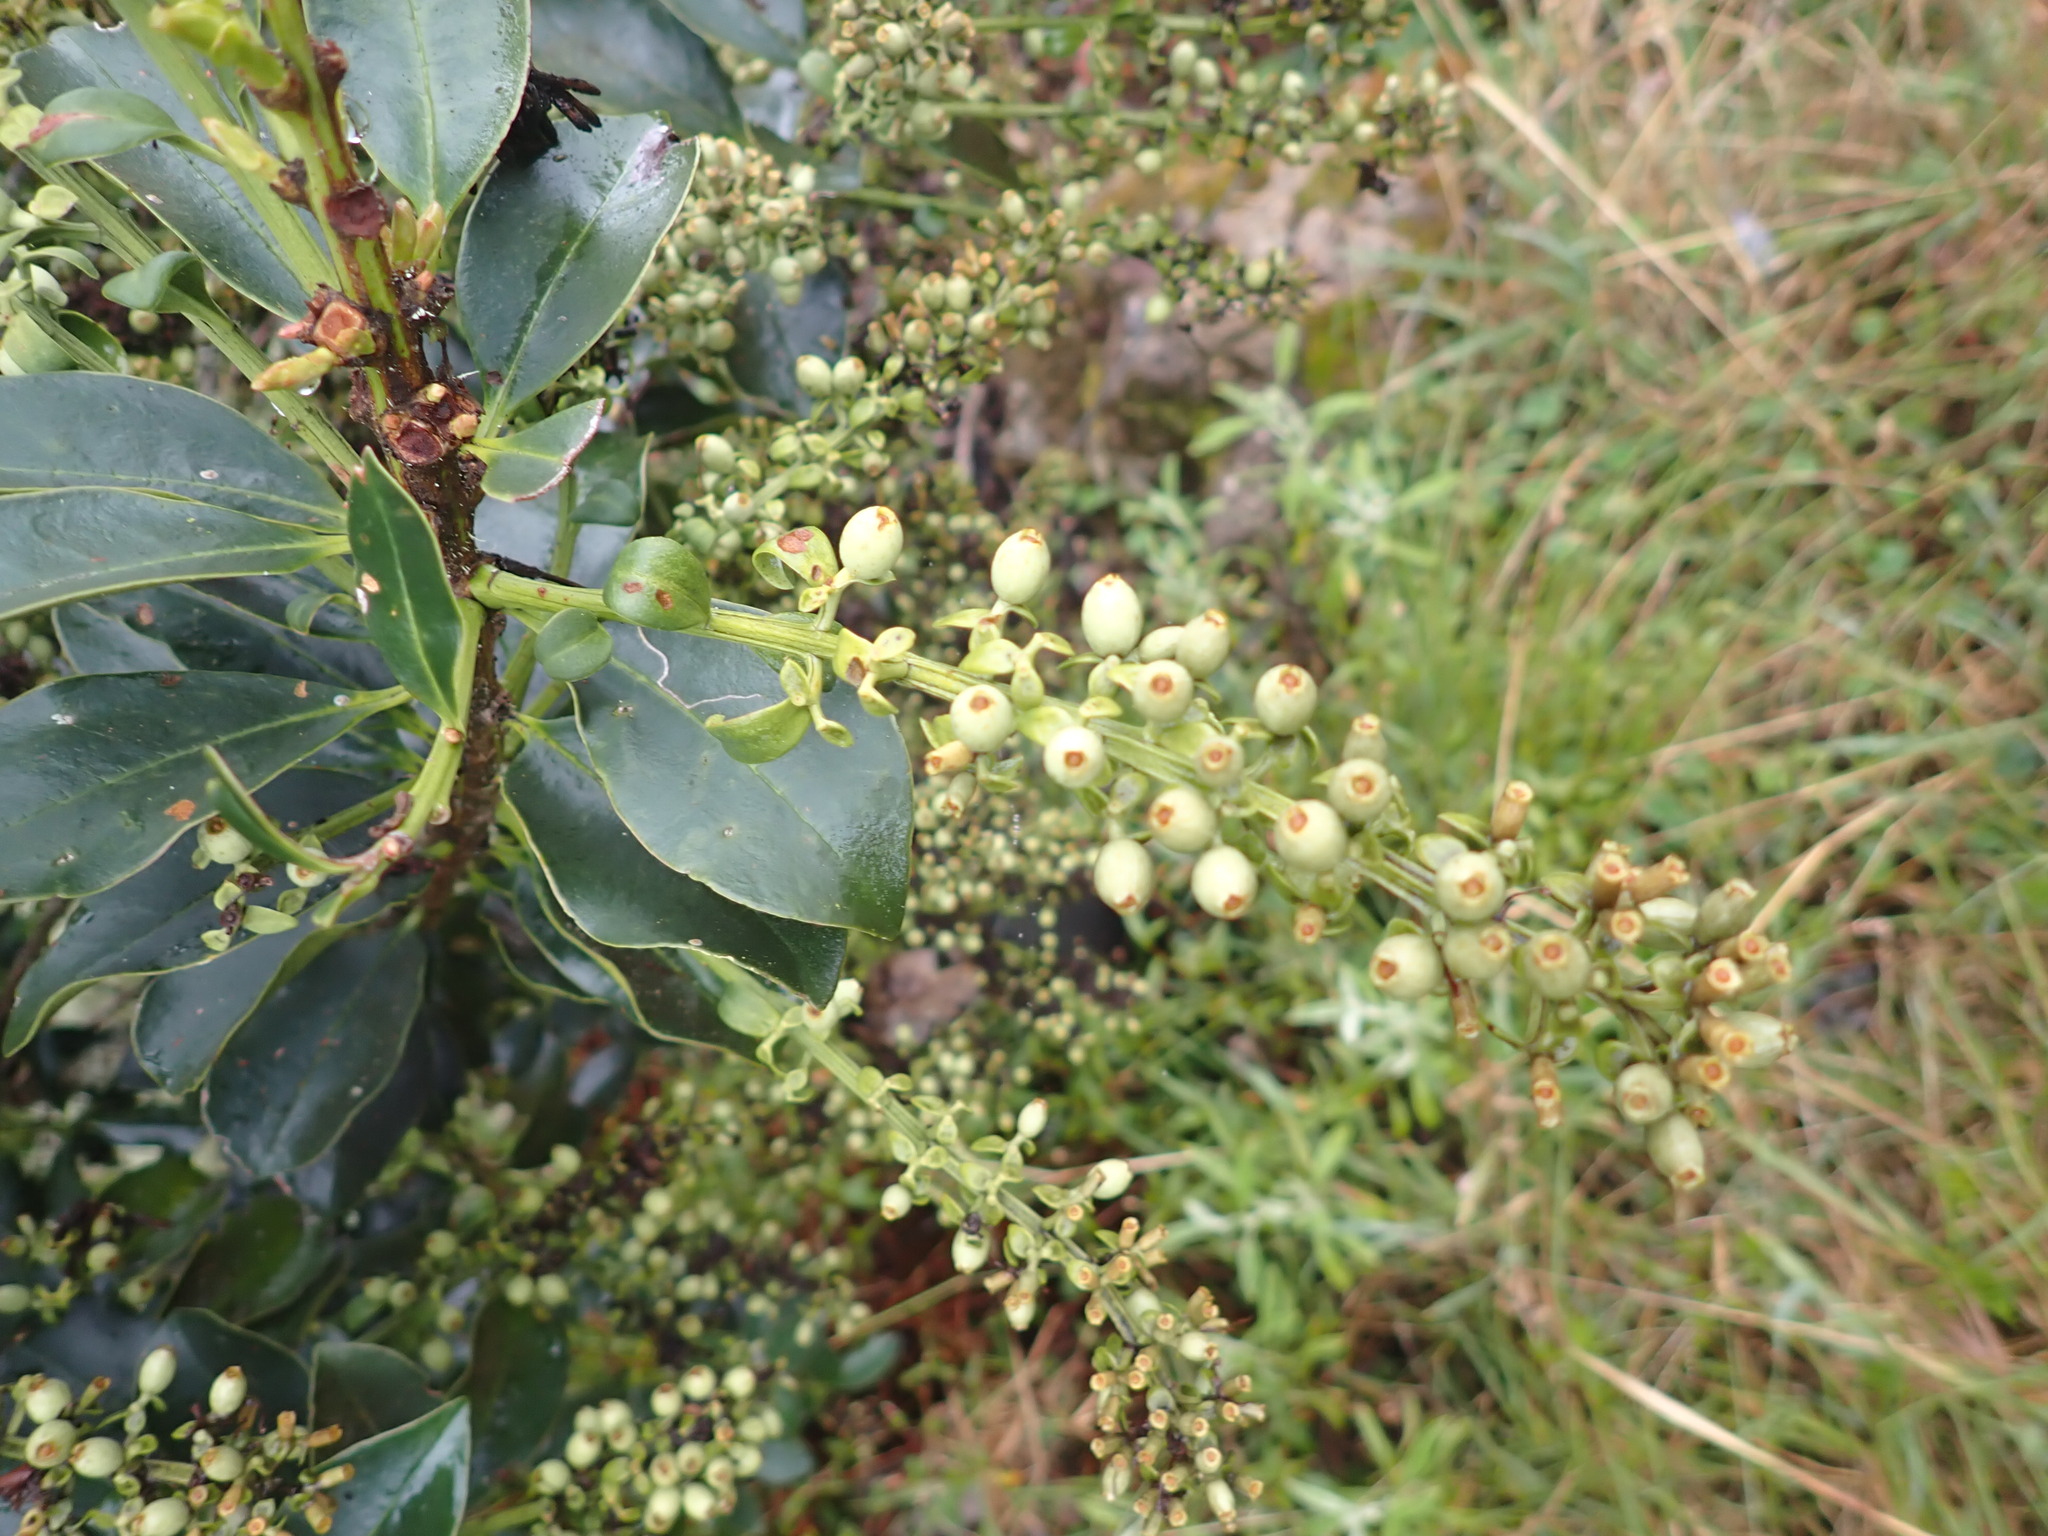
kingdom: Plantae
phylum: Tracheophyta
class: Magnoliopsida
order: Santalales
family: Loranthaceae
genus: Gaiadendron
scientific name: Gaiadendron punctatum
